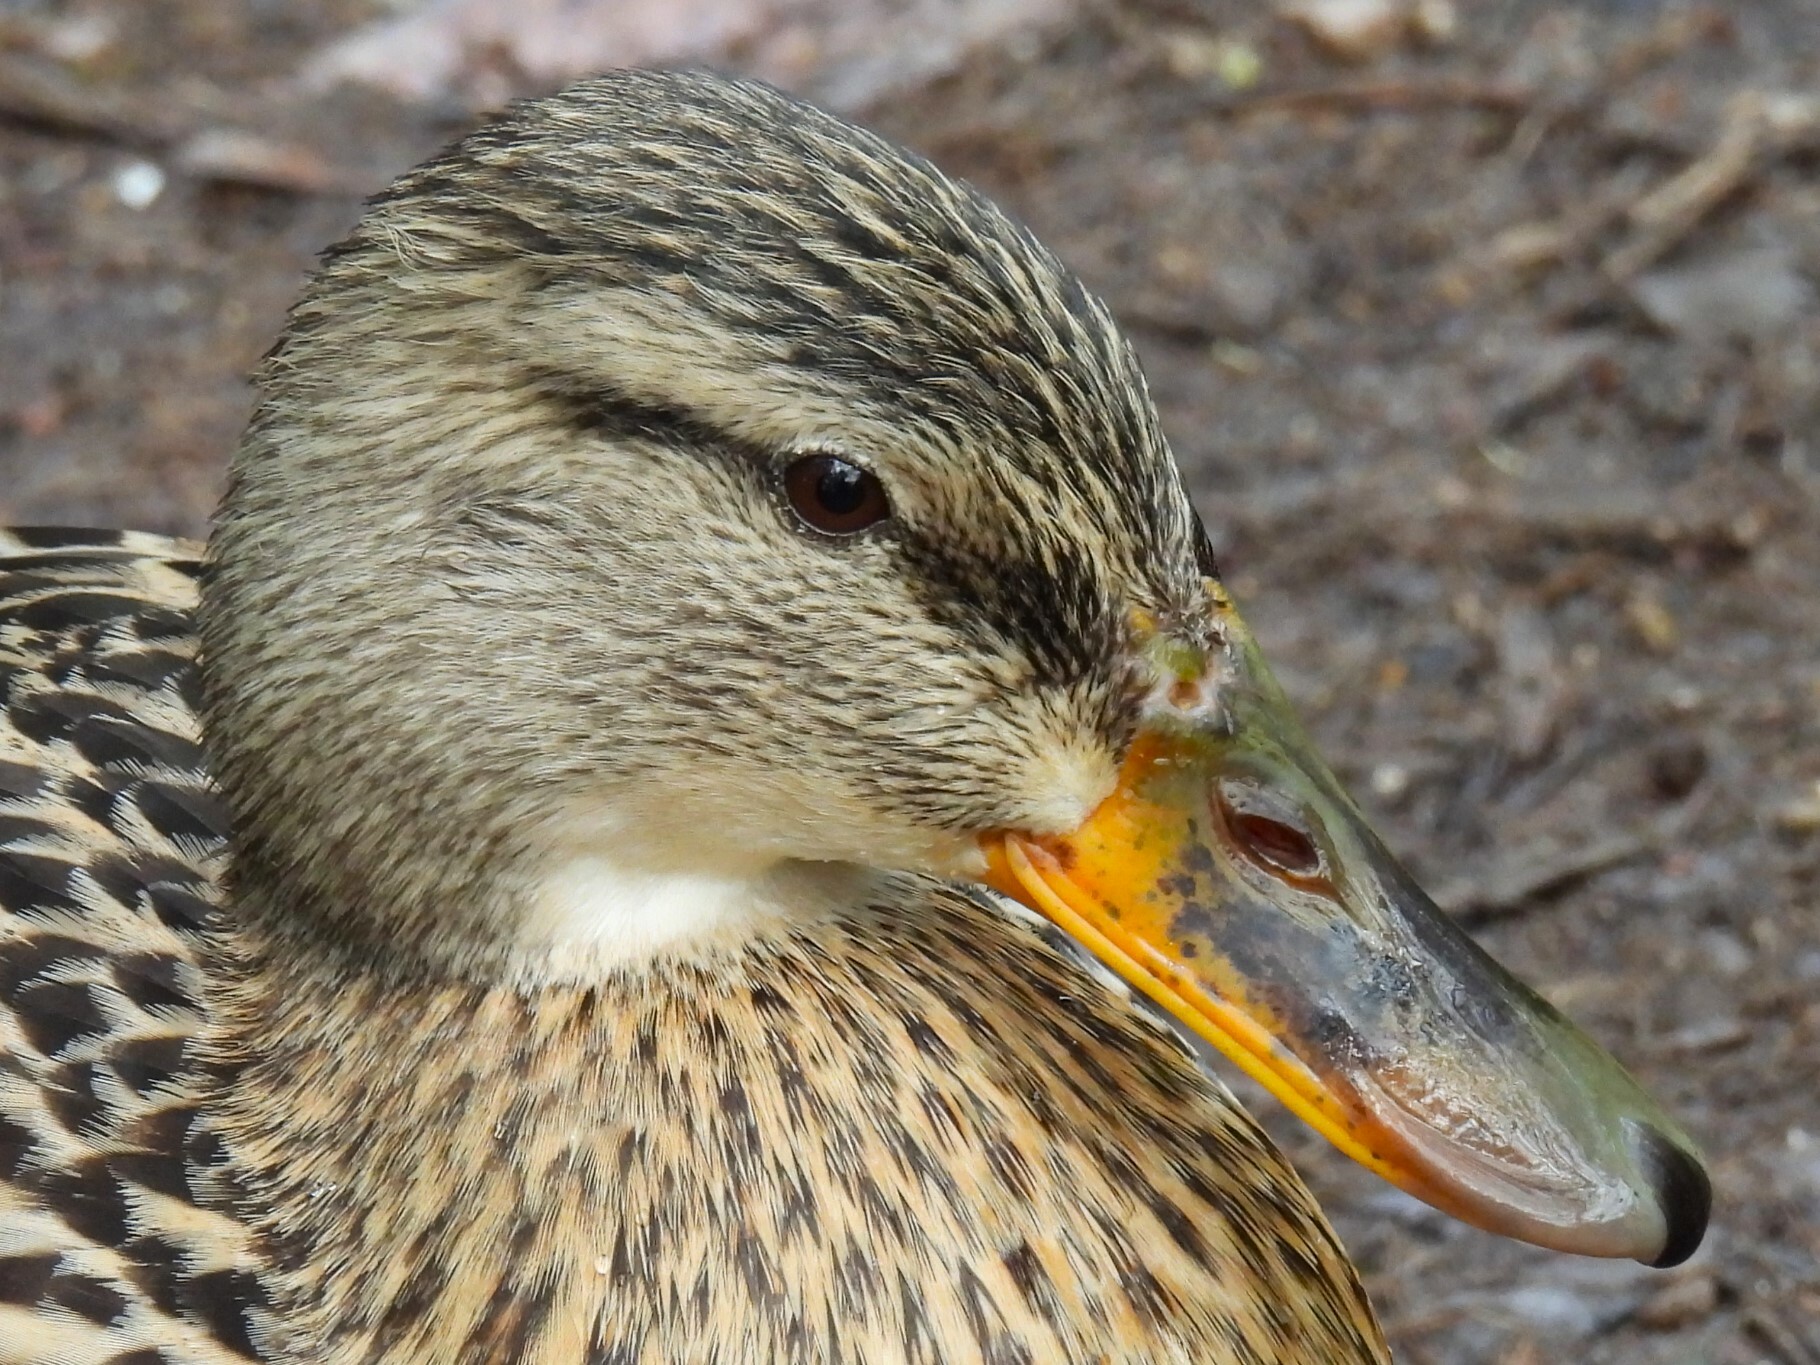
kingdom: Animalia
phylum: Chordata
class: Aves
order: Anseriformes
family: Anatidae
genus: Anas
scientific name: Anas platyrhynchos
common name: Mallard
